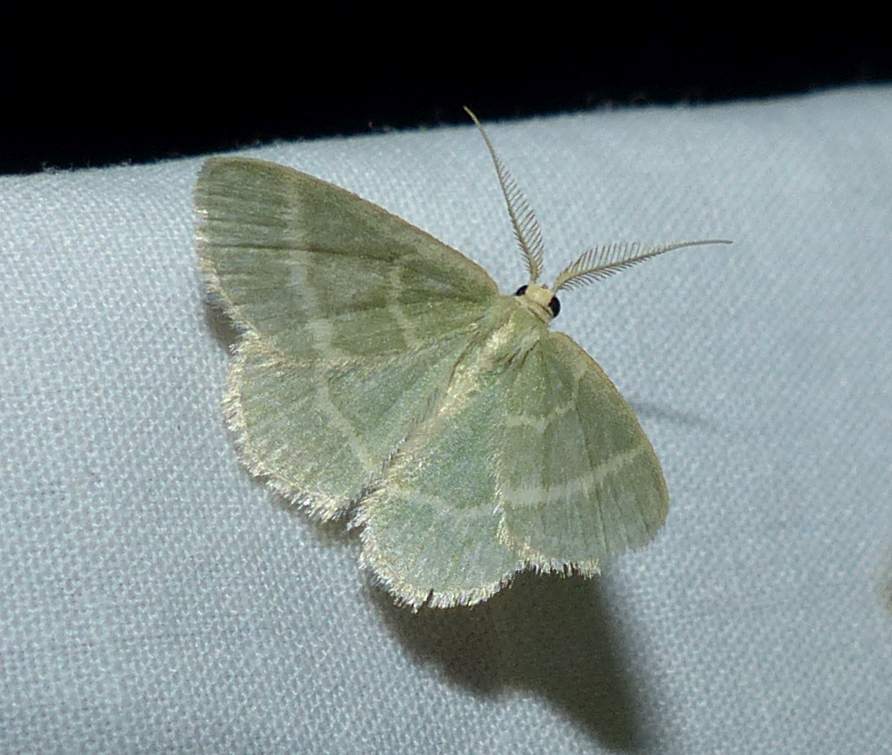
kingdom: Animalia
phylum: Arthropoda
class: Insecta
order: Lepidoptera
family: Geometridae
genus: Chlorochlamys
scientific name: Chlorochlamys chloroleucaria
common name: Blackberry looper
